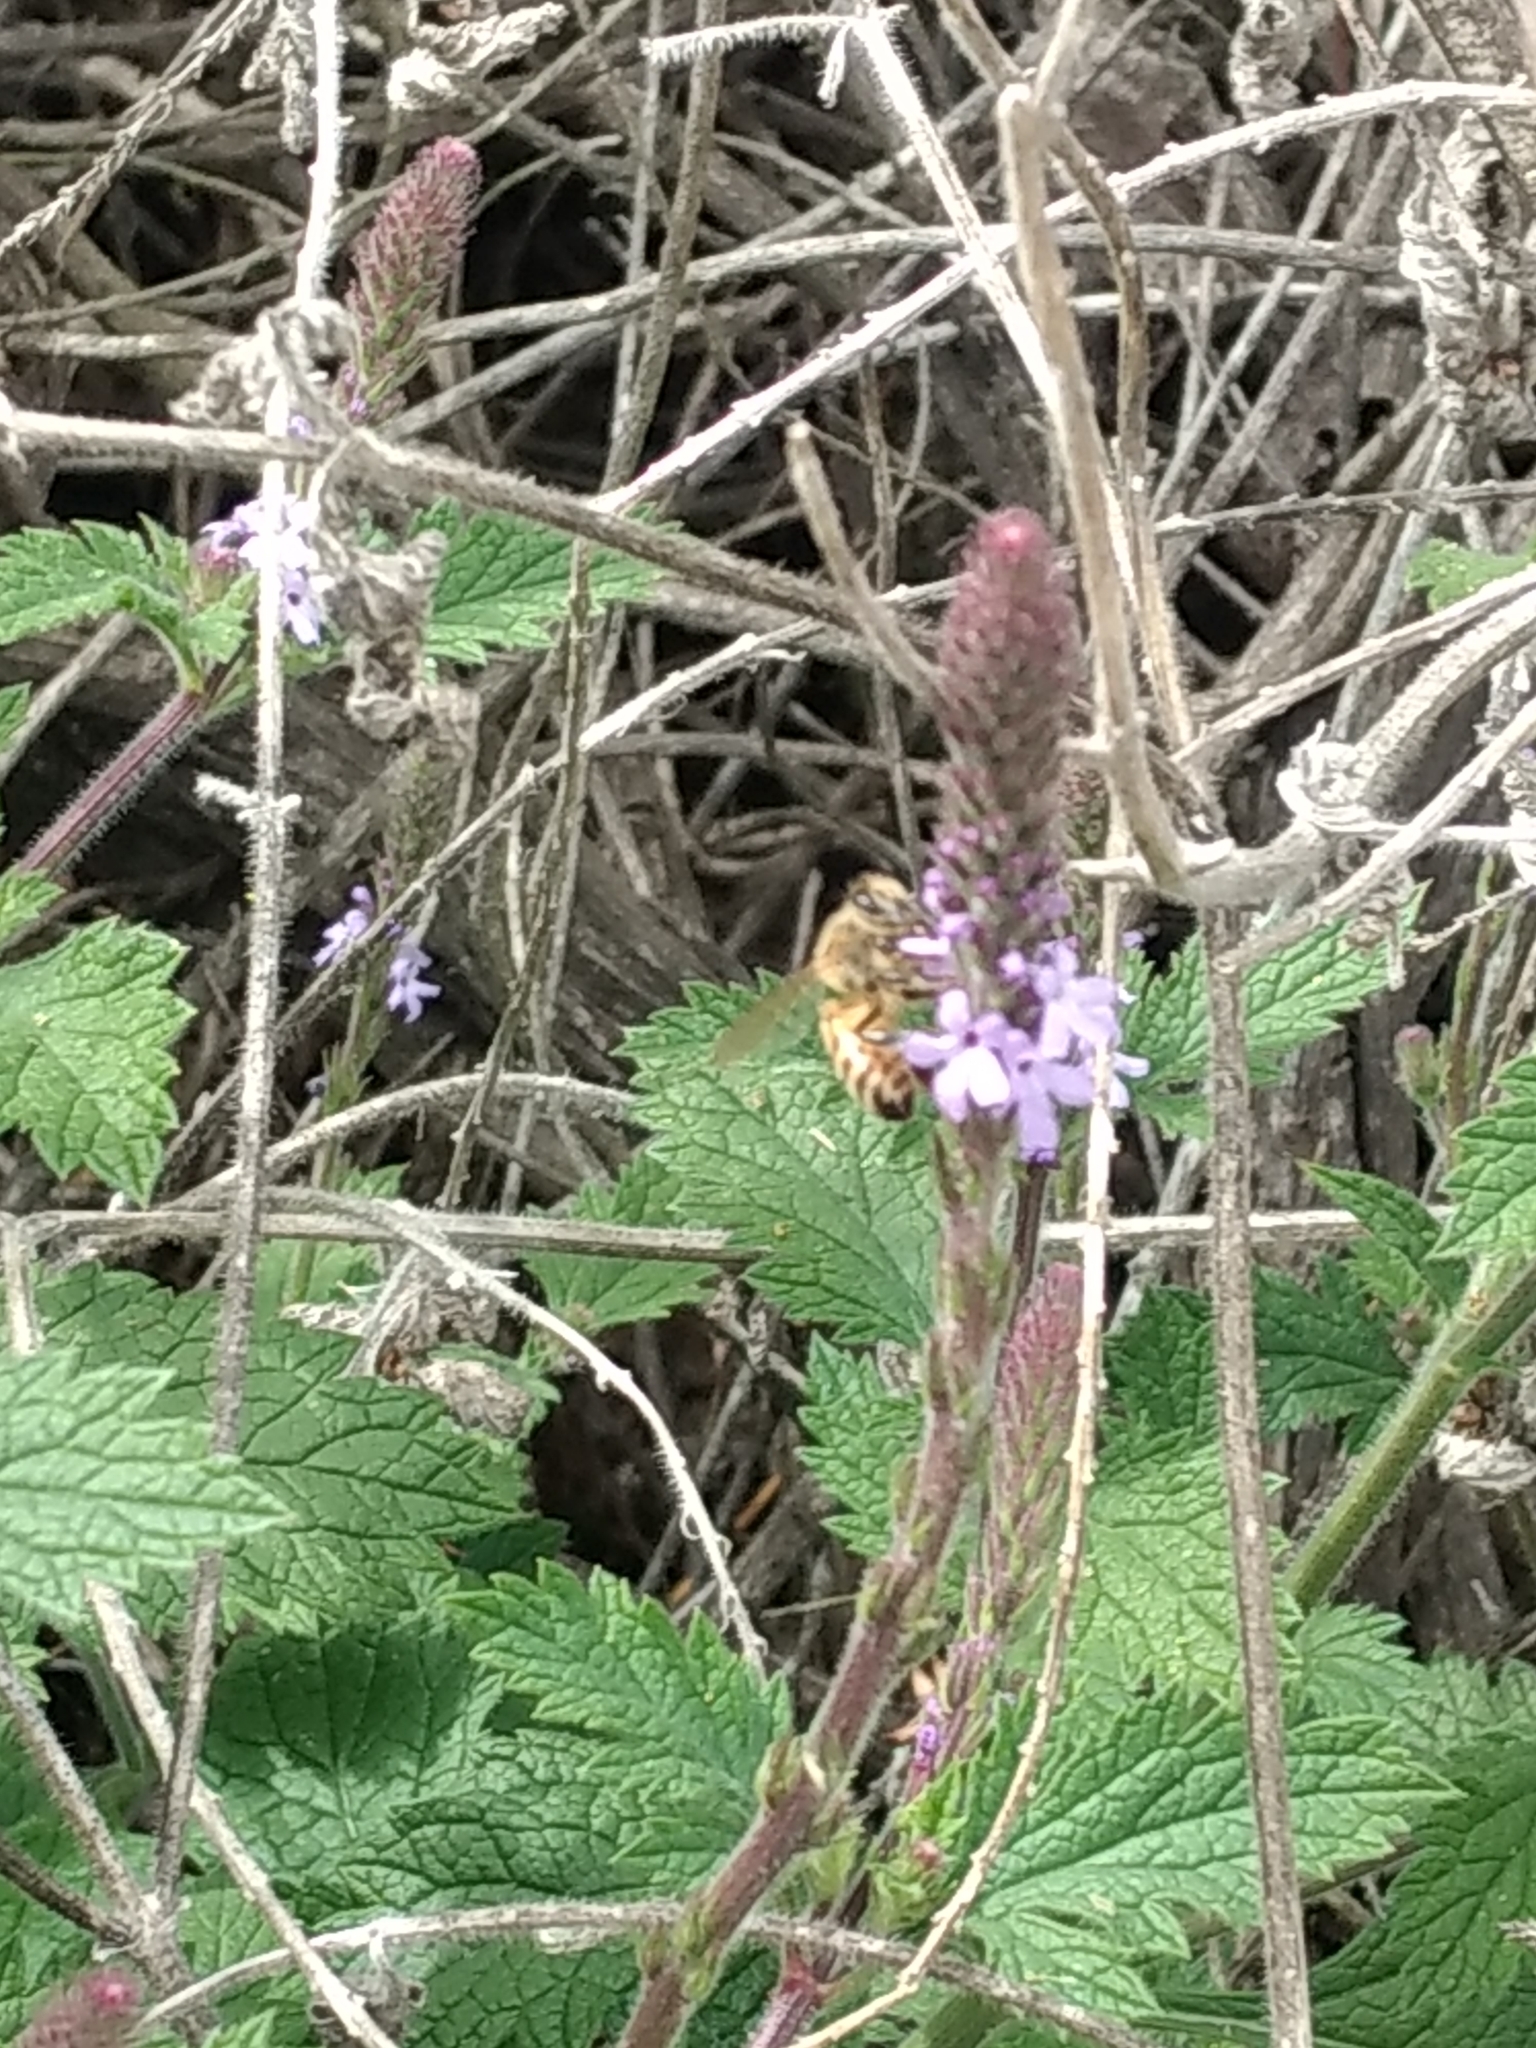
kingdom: Animalia
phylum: Arthropoda
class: Insecta
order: Hymenoptera
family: Apidae
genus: Apis
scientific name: Apis mellifera
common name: Honey bee
